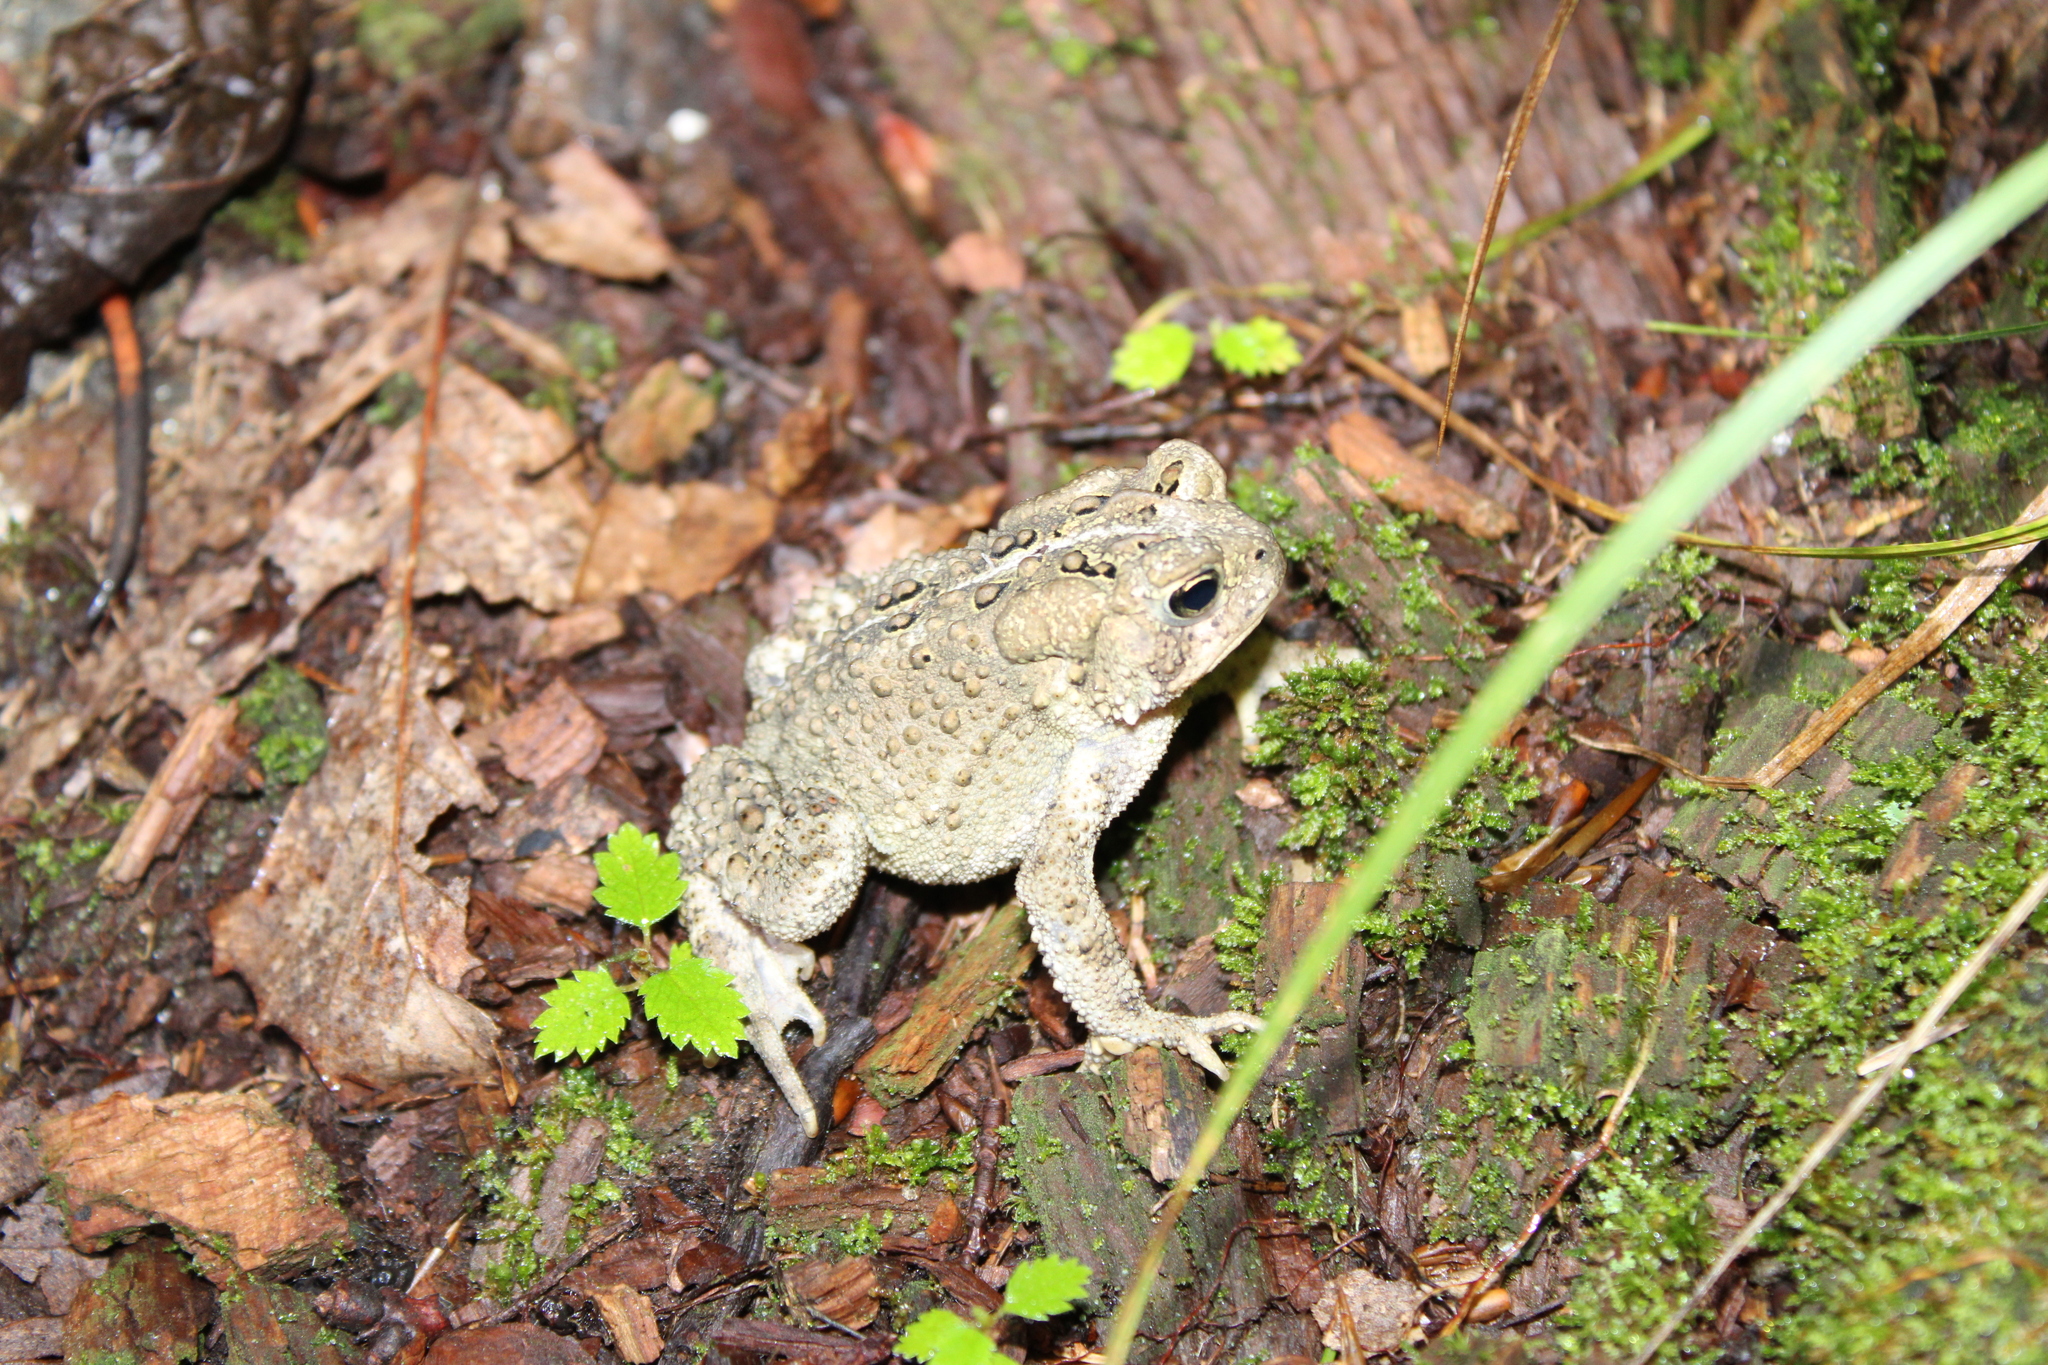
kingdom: Animalia
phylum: Chordata
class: Amphibia
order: Anura
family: Bufonidae
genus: Anaxyrus
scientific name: Anaxyrus americanus
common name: American toad
